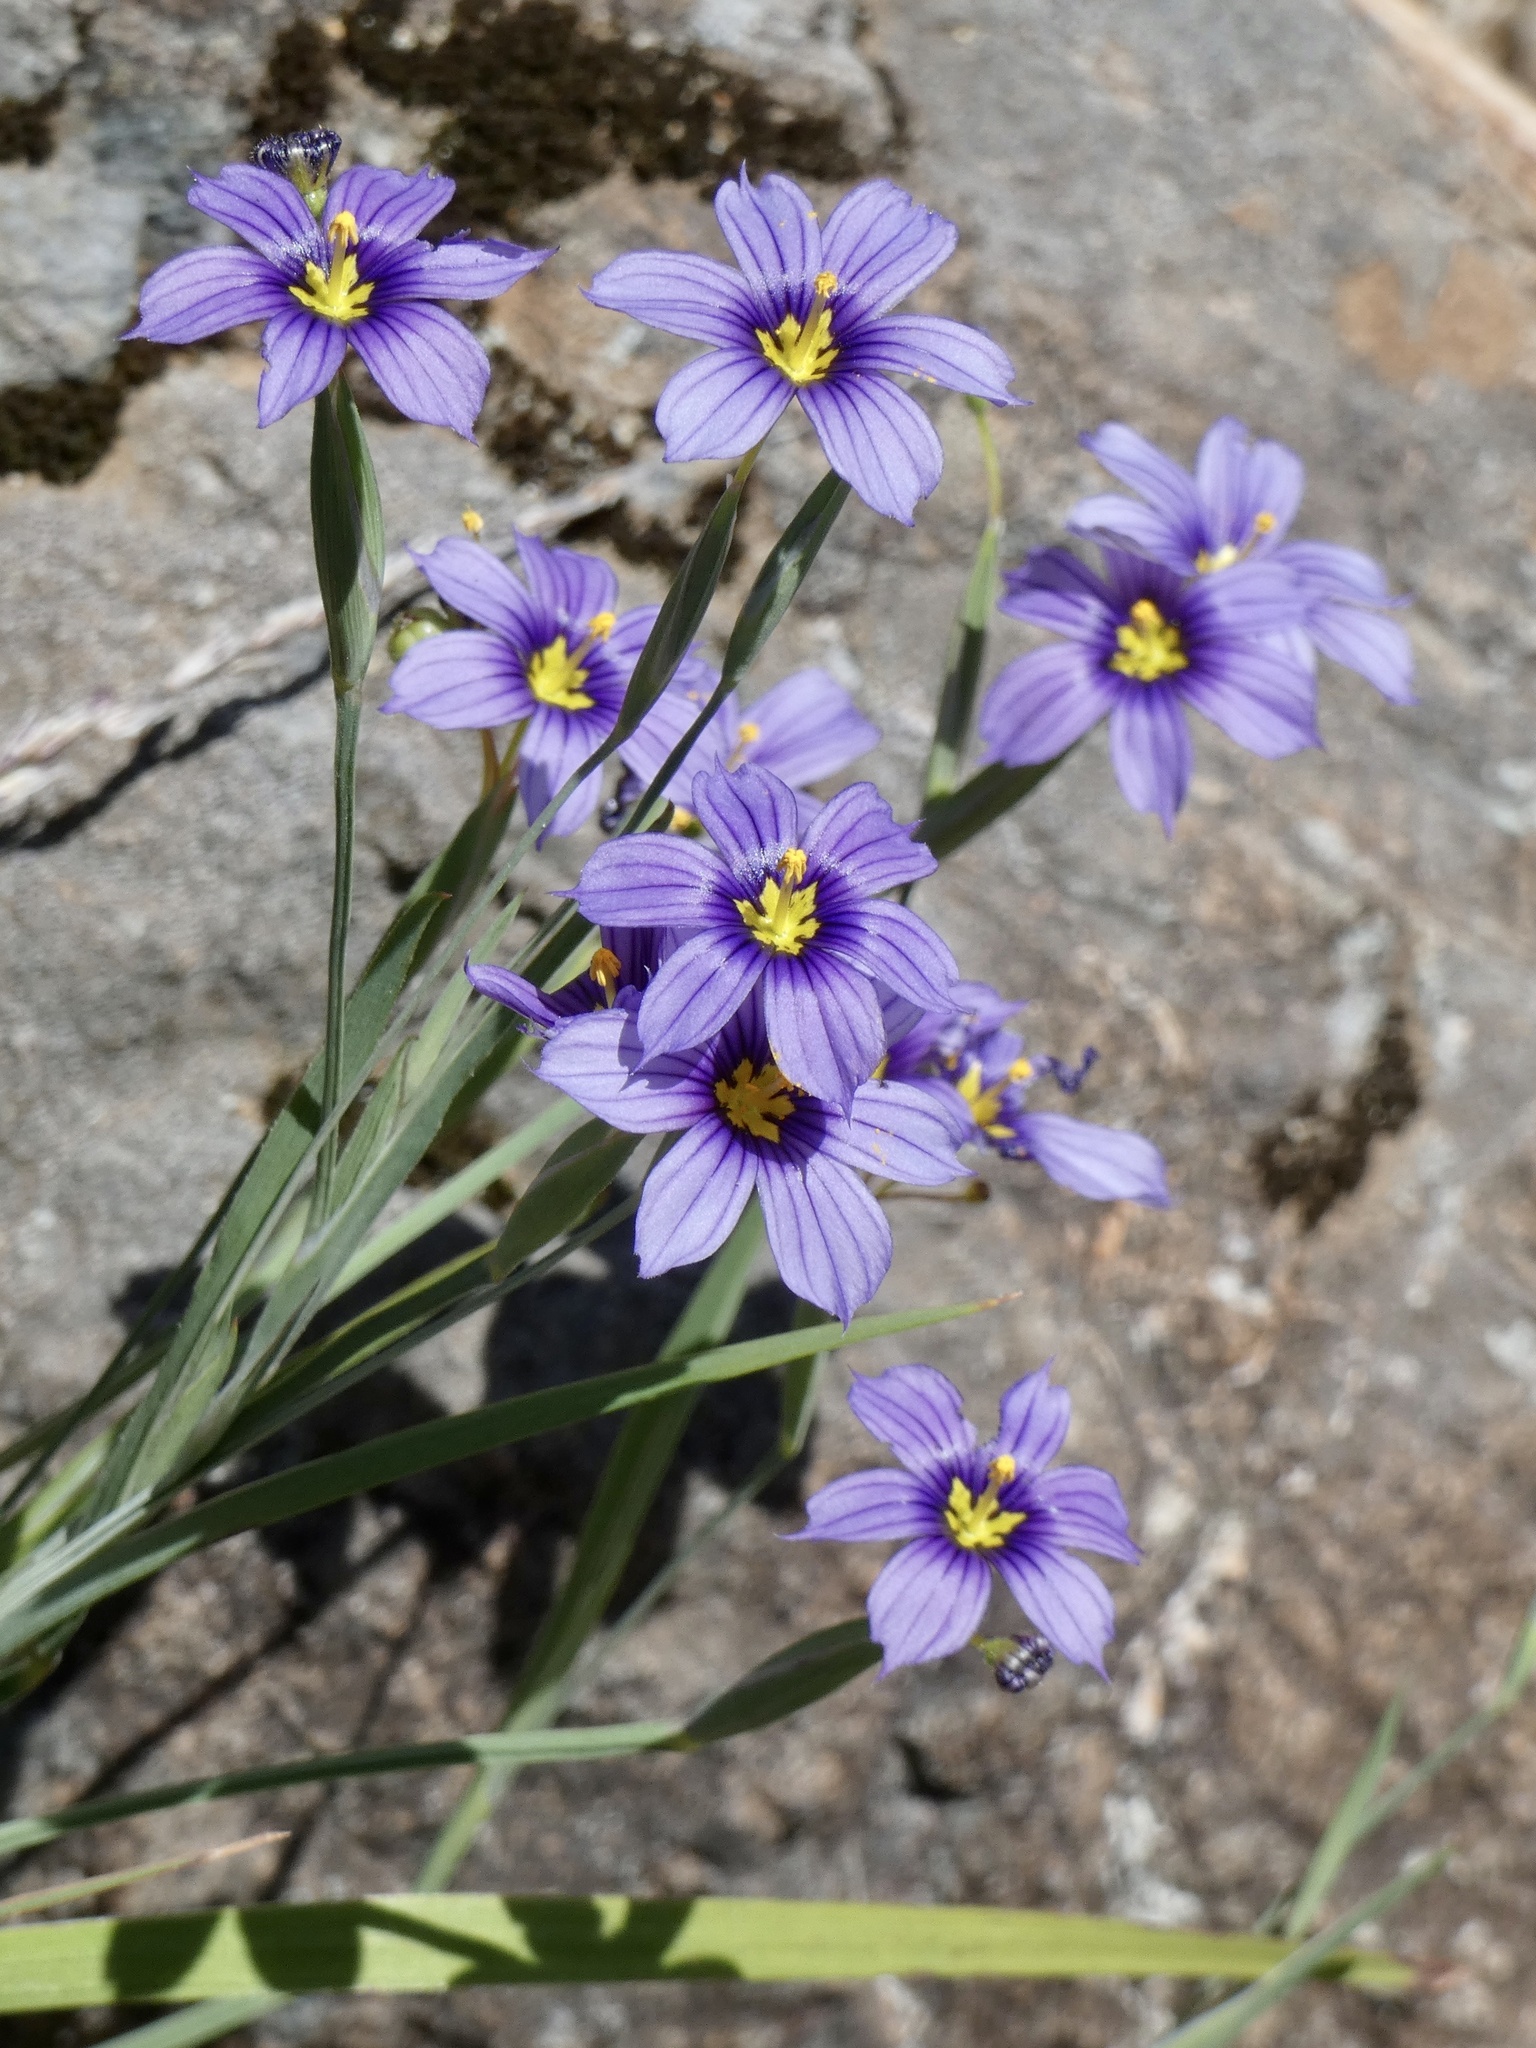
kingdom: Plantae
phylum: Tracheophyta
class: Liliopsida
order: Asparagales
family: Iridaceae
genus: Sisyrinchium
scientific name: Sisyrinchium bellum
